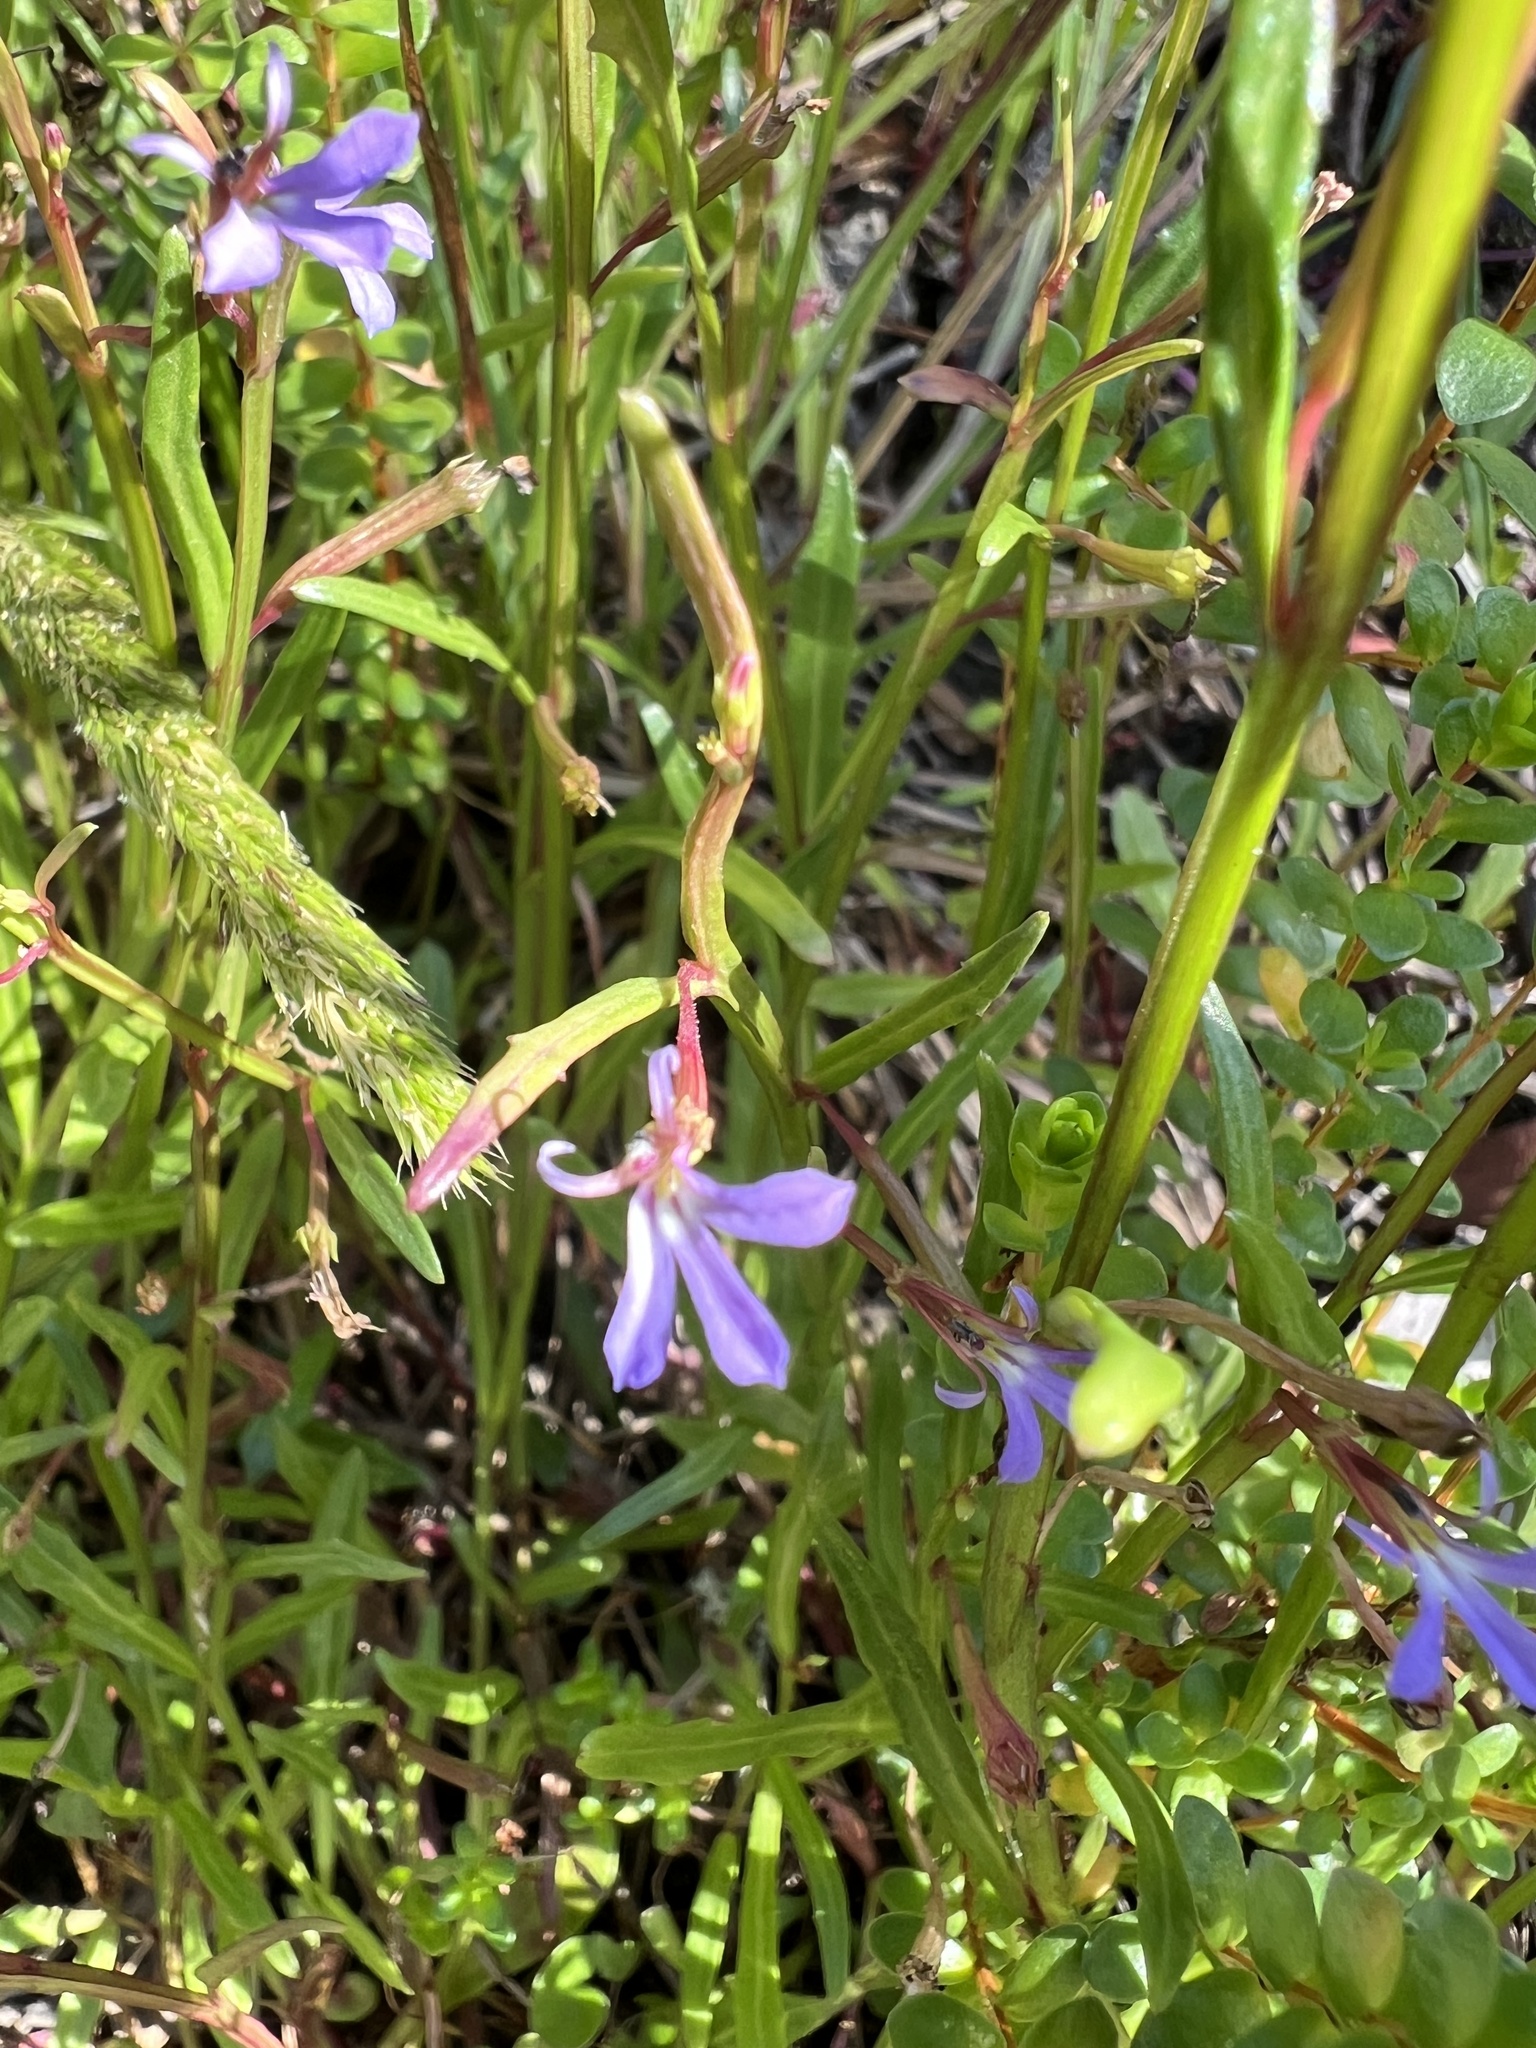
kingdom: Plantae
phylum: Tracheophyta
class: Magnoliopsida
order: Asterales
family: Campanulaceae
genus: Lobelia
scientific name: Lobelia anceps
